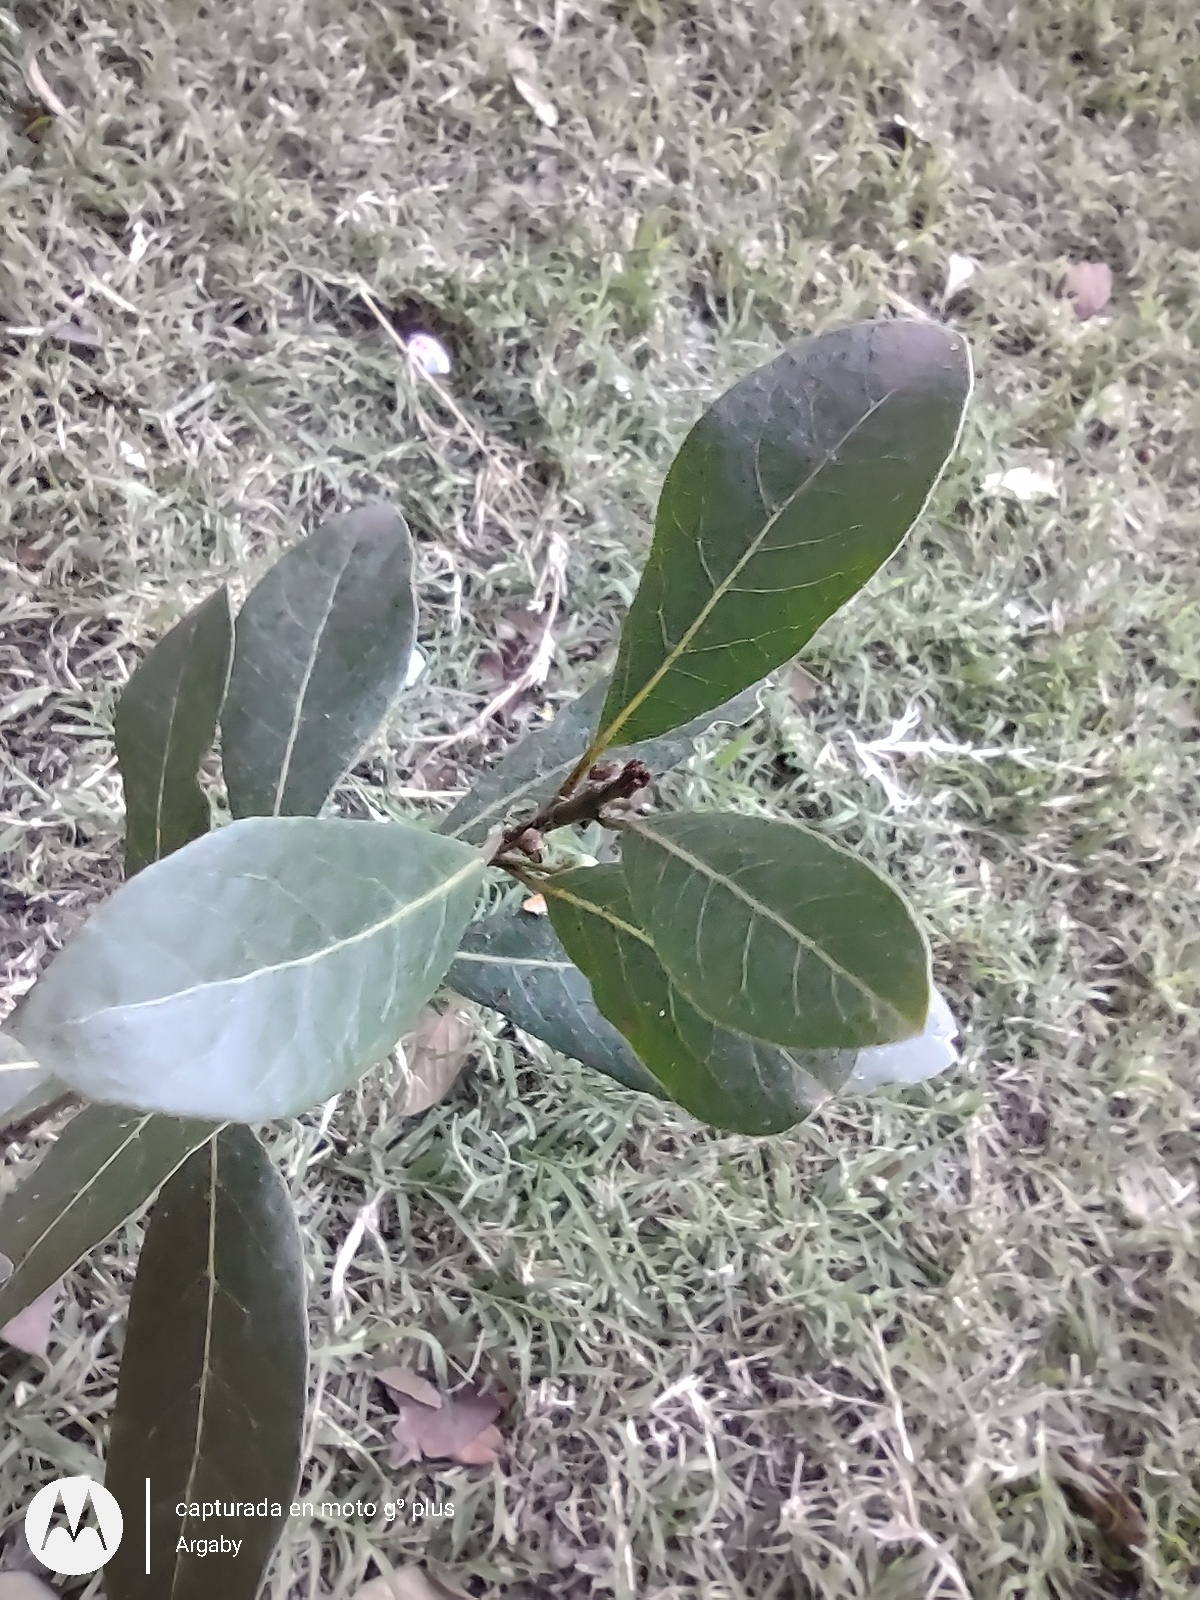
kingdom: Plantae
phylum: Tracheophyta
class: Magnoliopsida
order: Laurales
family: Lauraceae
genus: Laurus
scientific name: Laurus nobilis
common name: Bay
